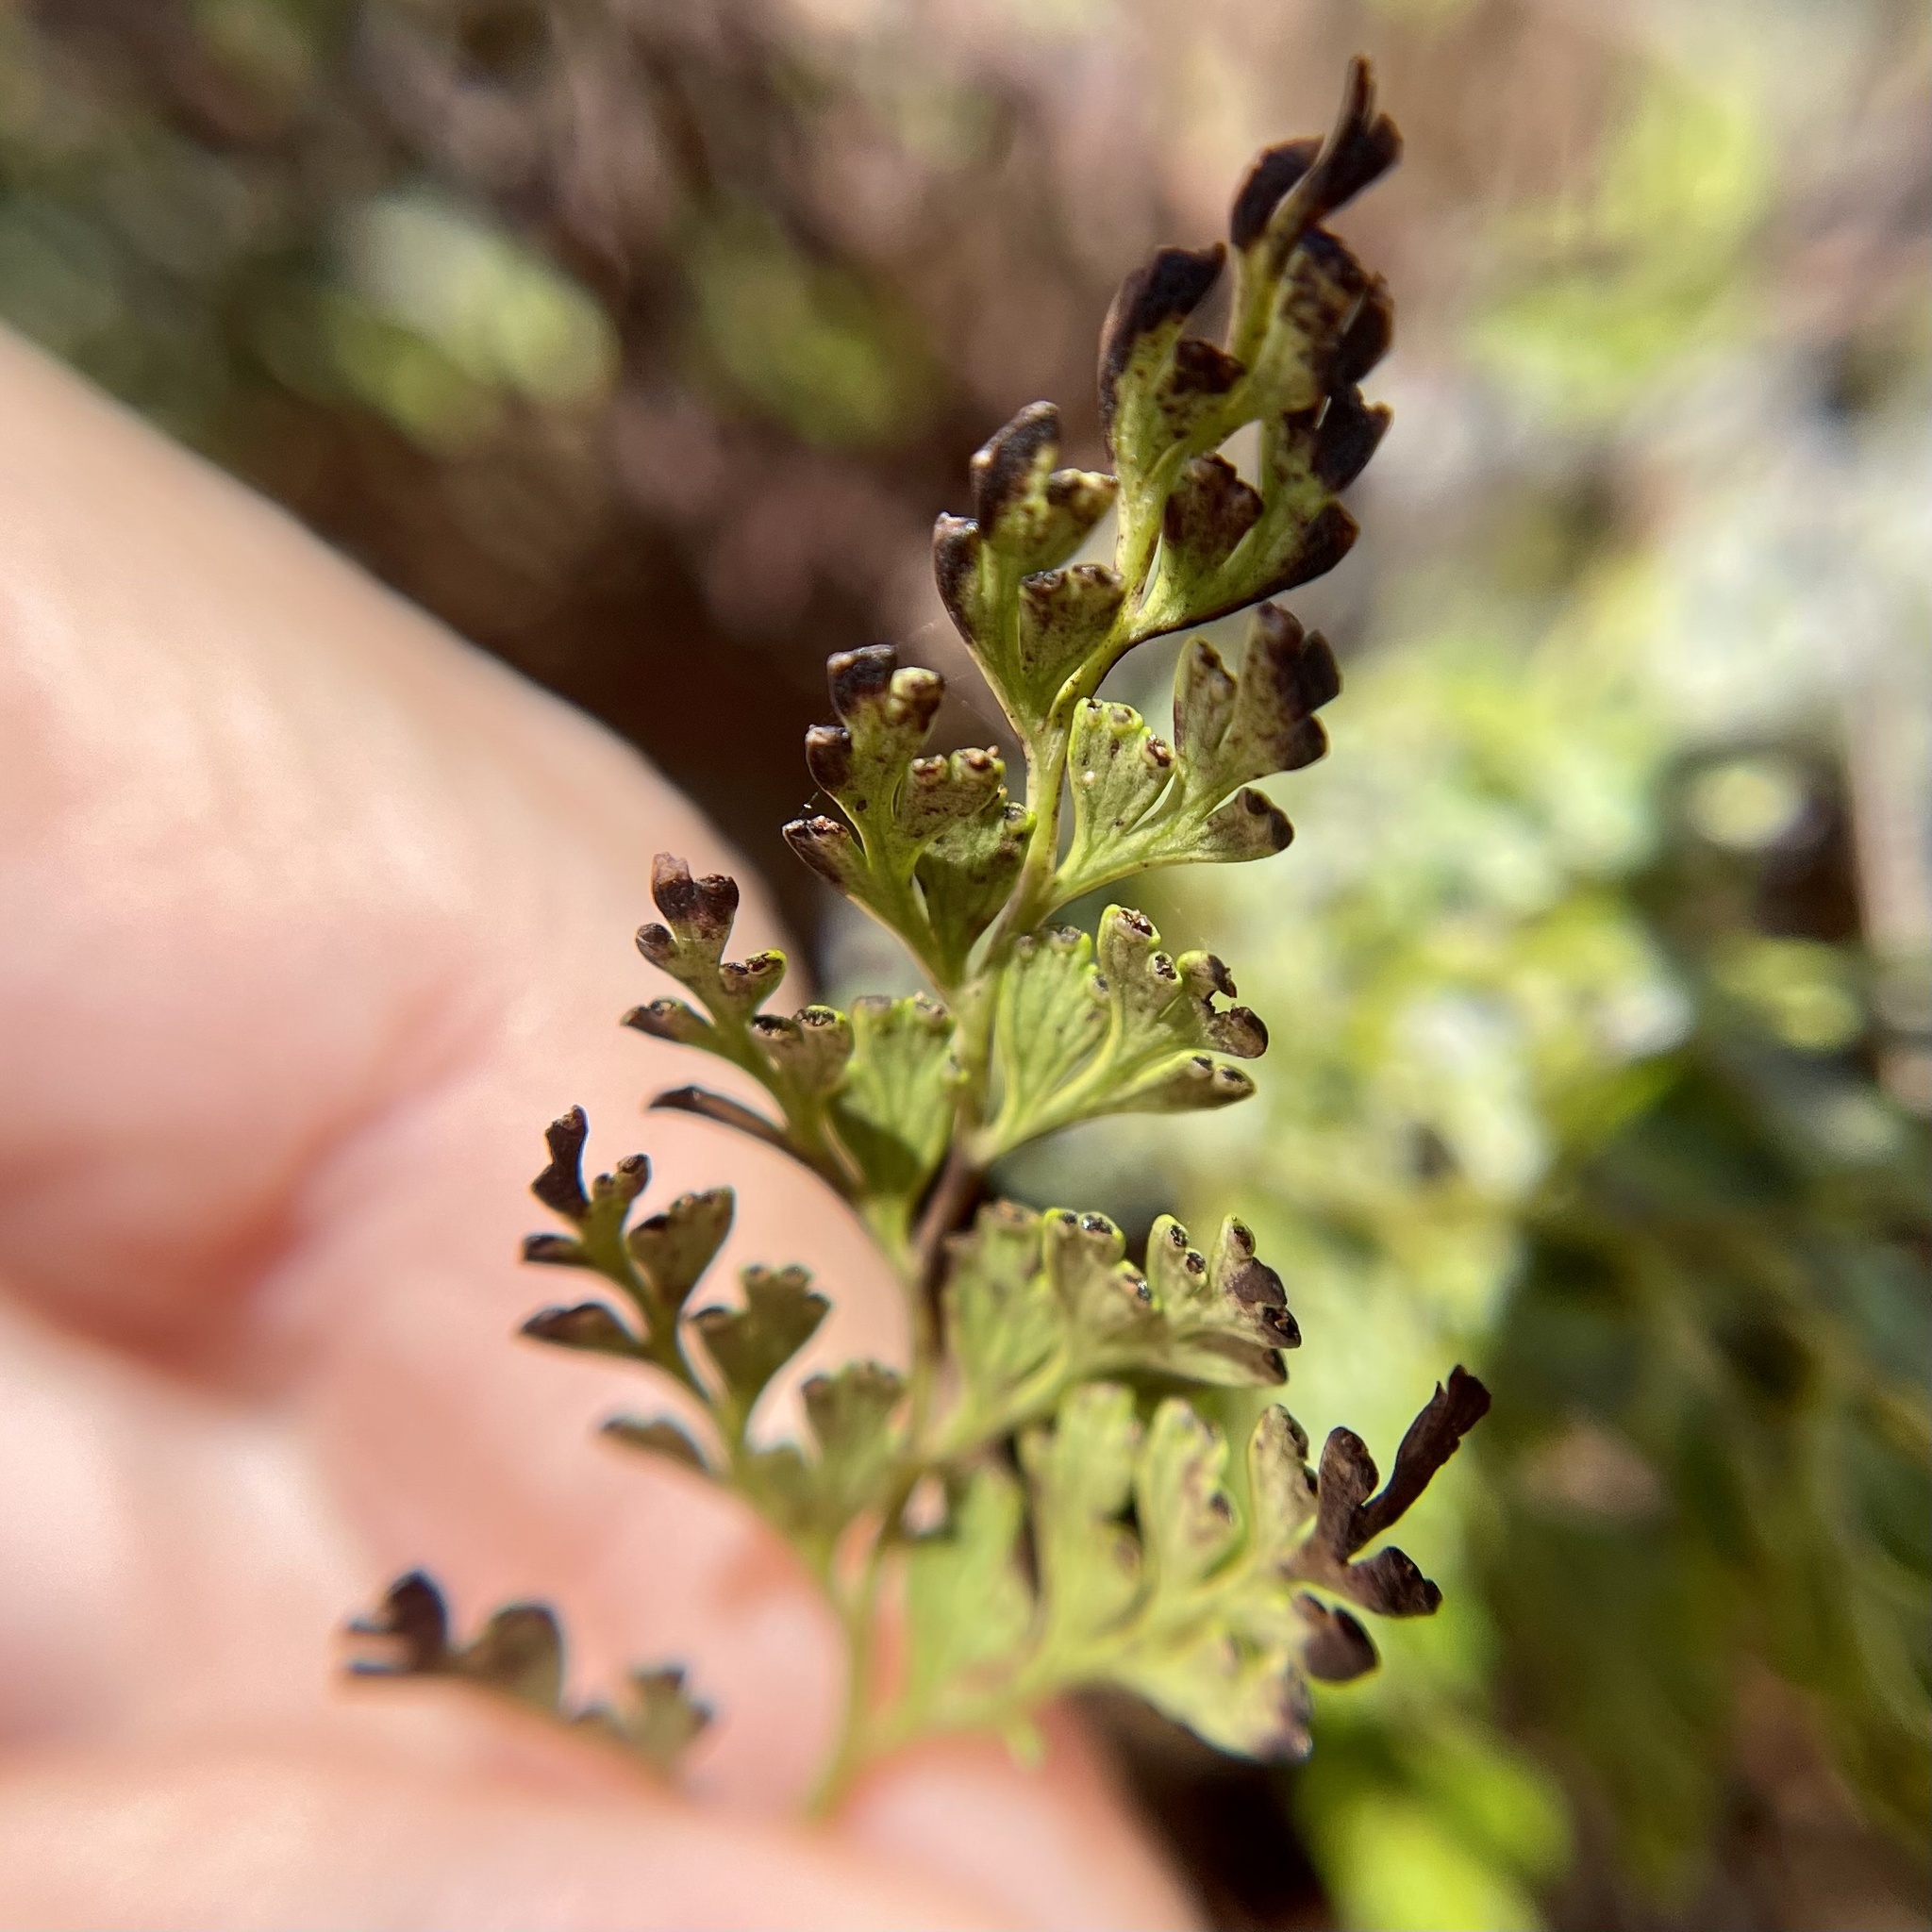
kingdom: Plantae
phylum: Tracheophyta
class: Polypodiopsida
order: Polypodiales
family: Lindsaeaceae
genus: Odontosoria
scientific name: Odontosoria chinensis
